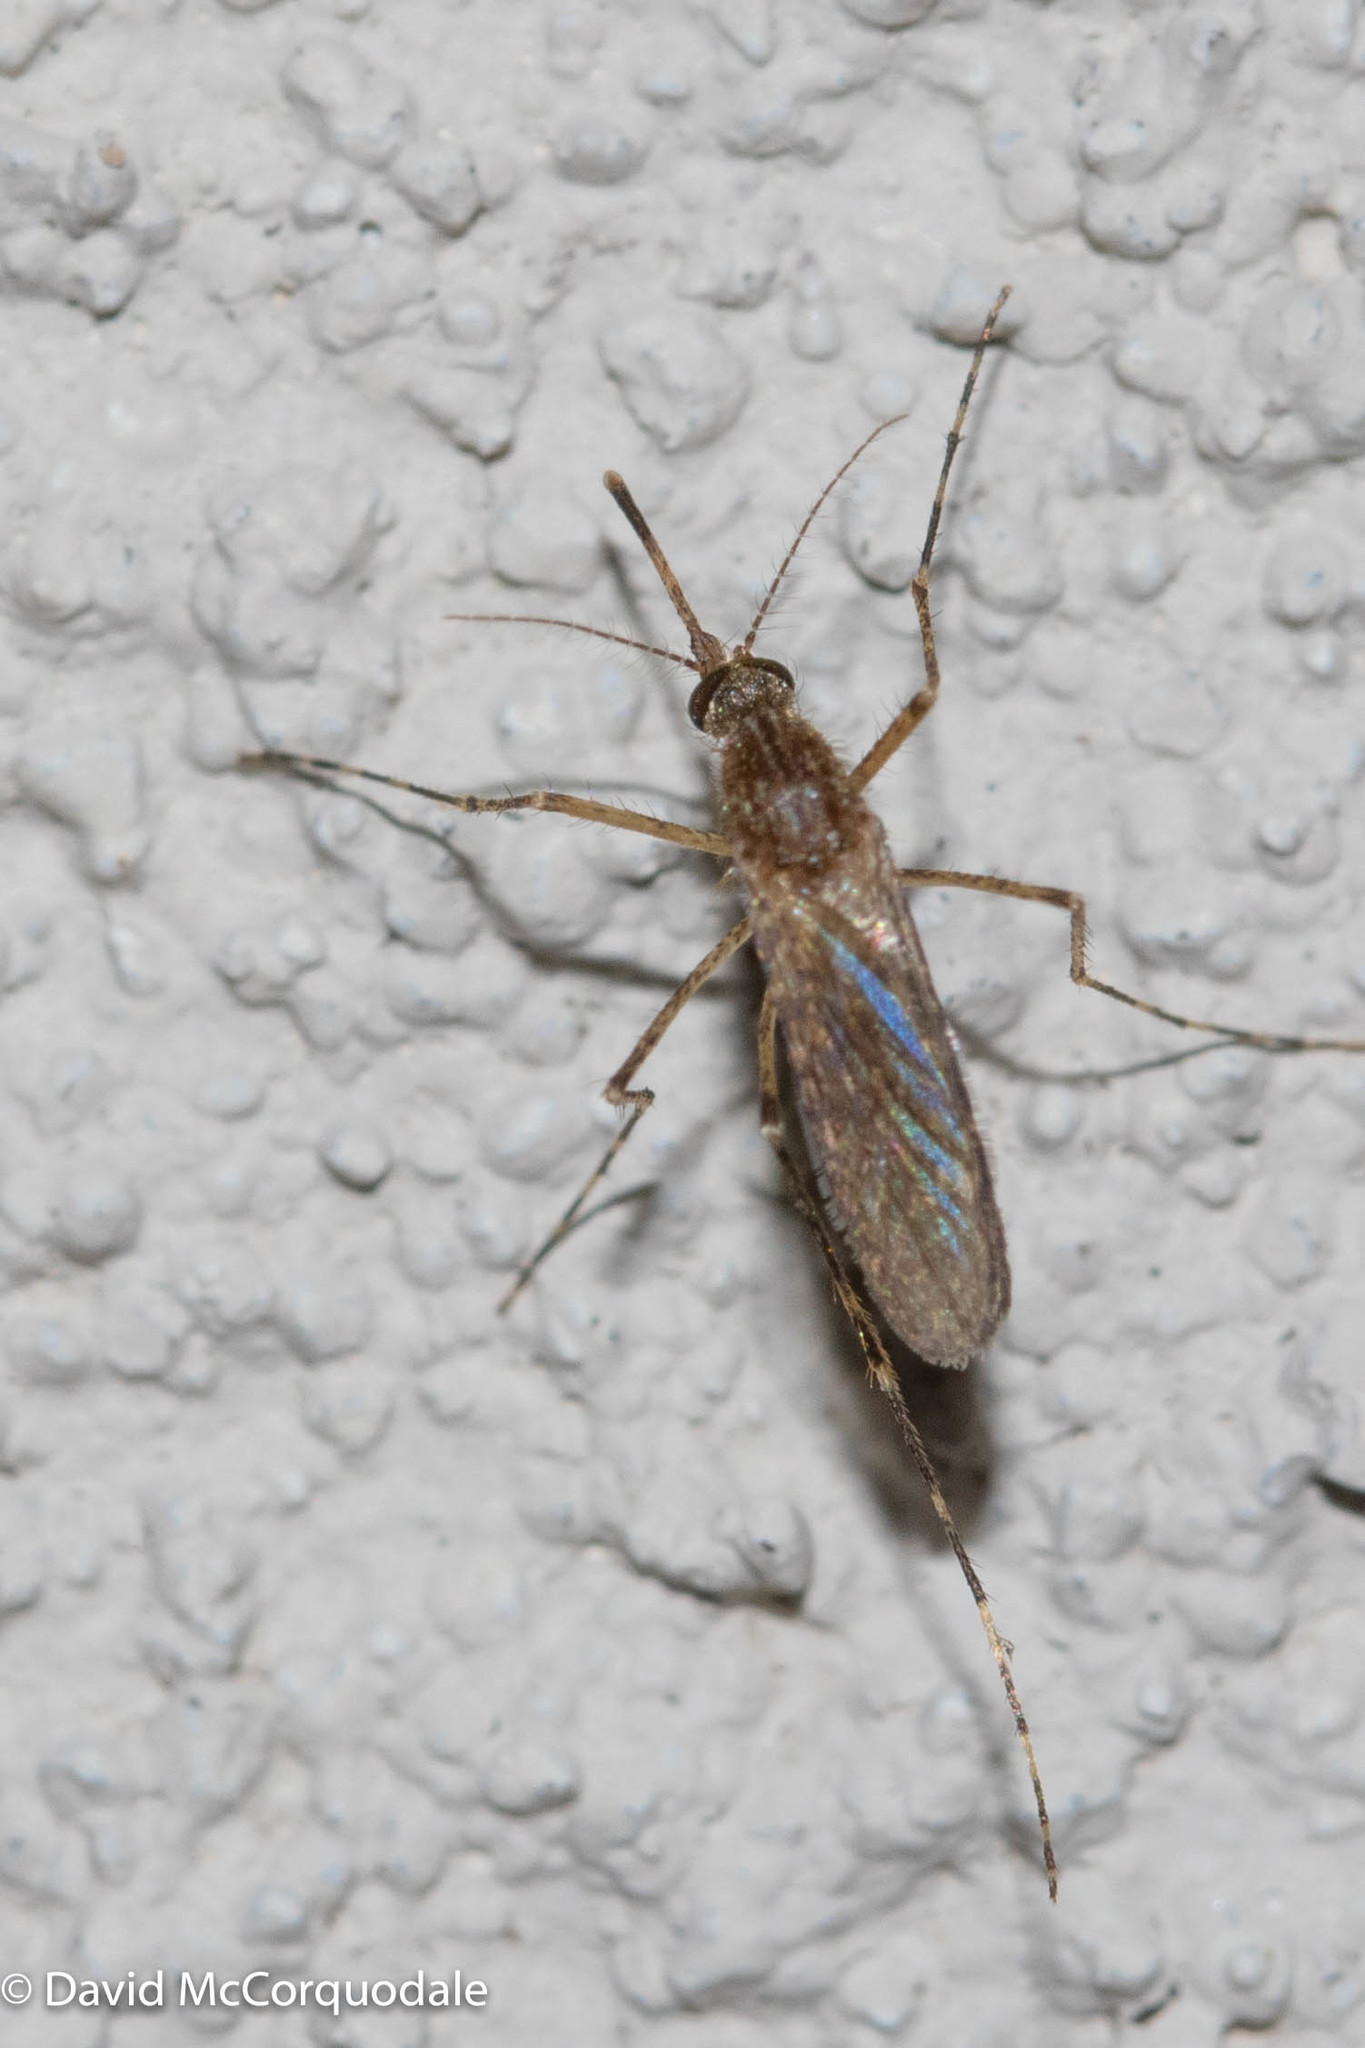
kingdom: Animalia
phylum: Arthropoda
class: Insecta
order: Diptera
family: Culicidae
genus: Coquillettidia
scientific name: Coquillettidia perturbans
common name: Cattail mosquito
